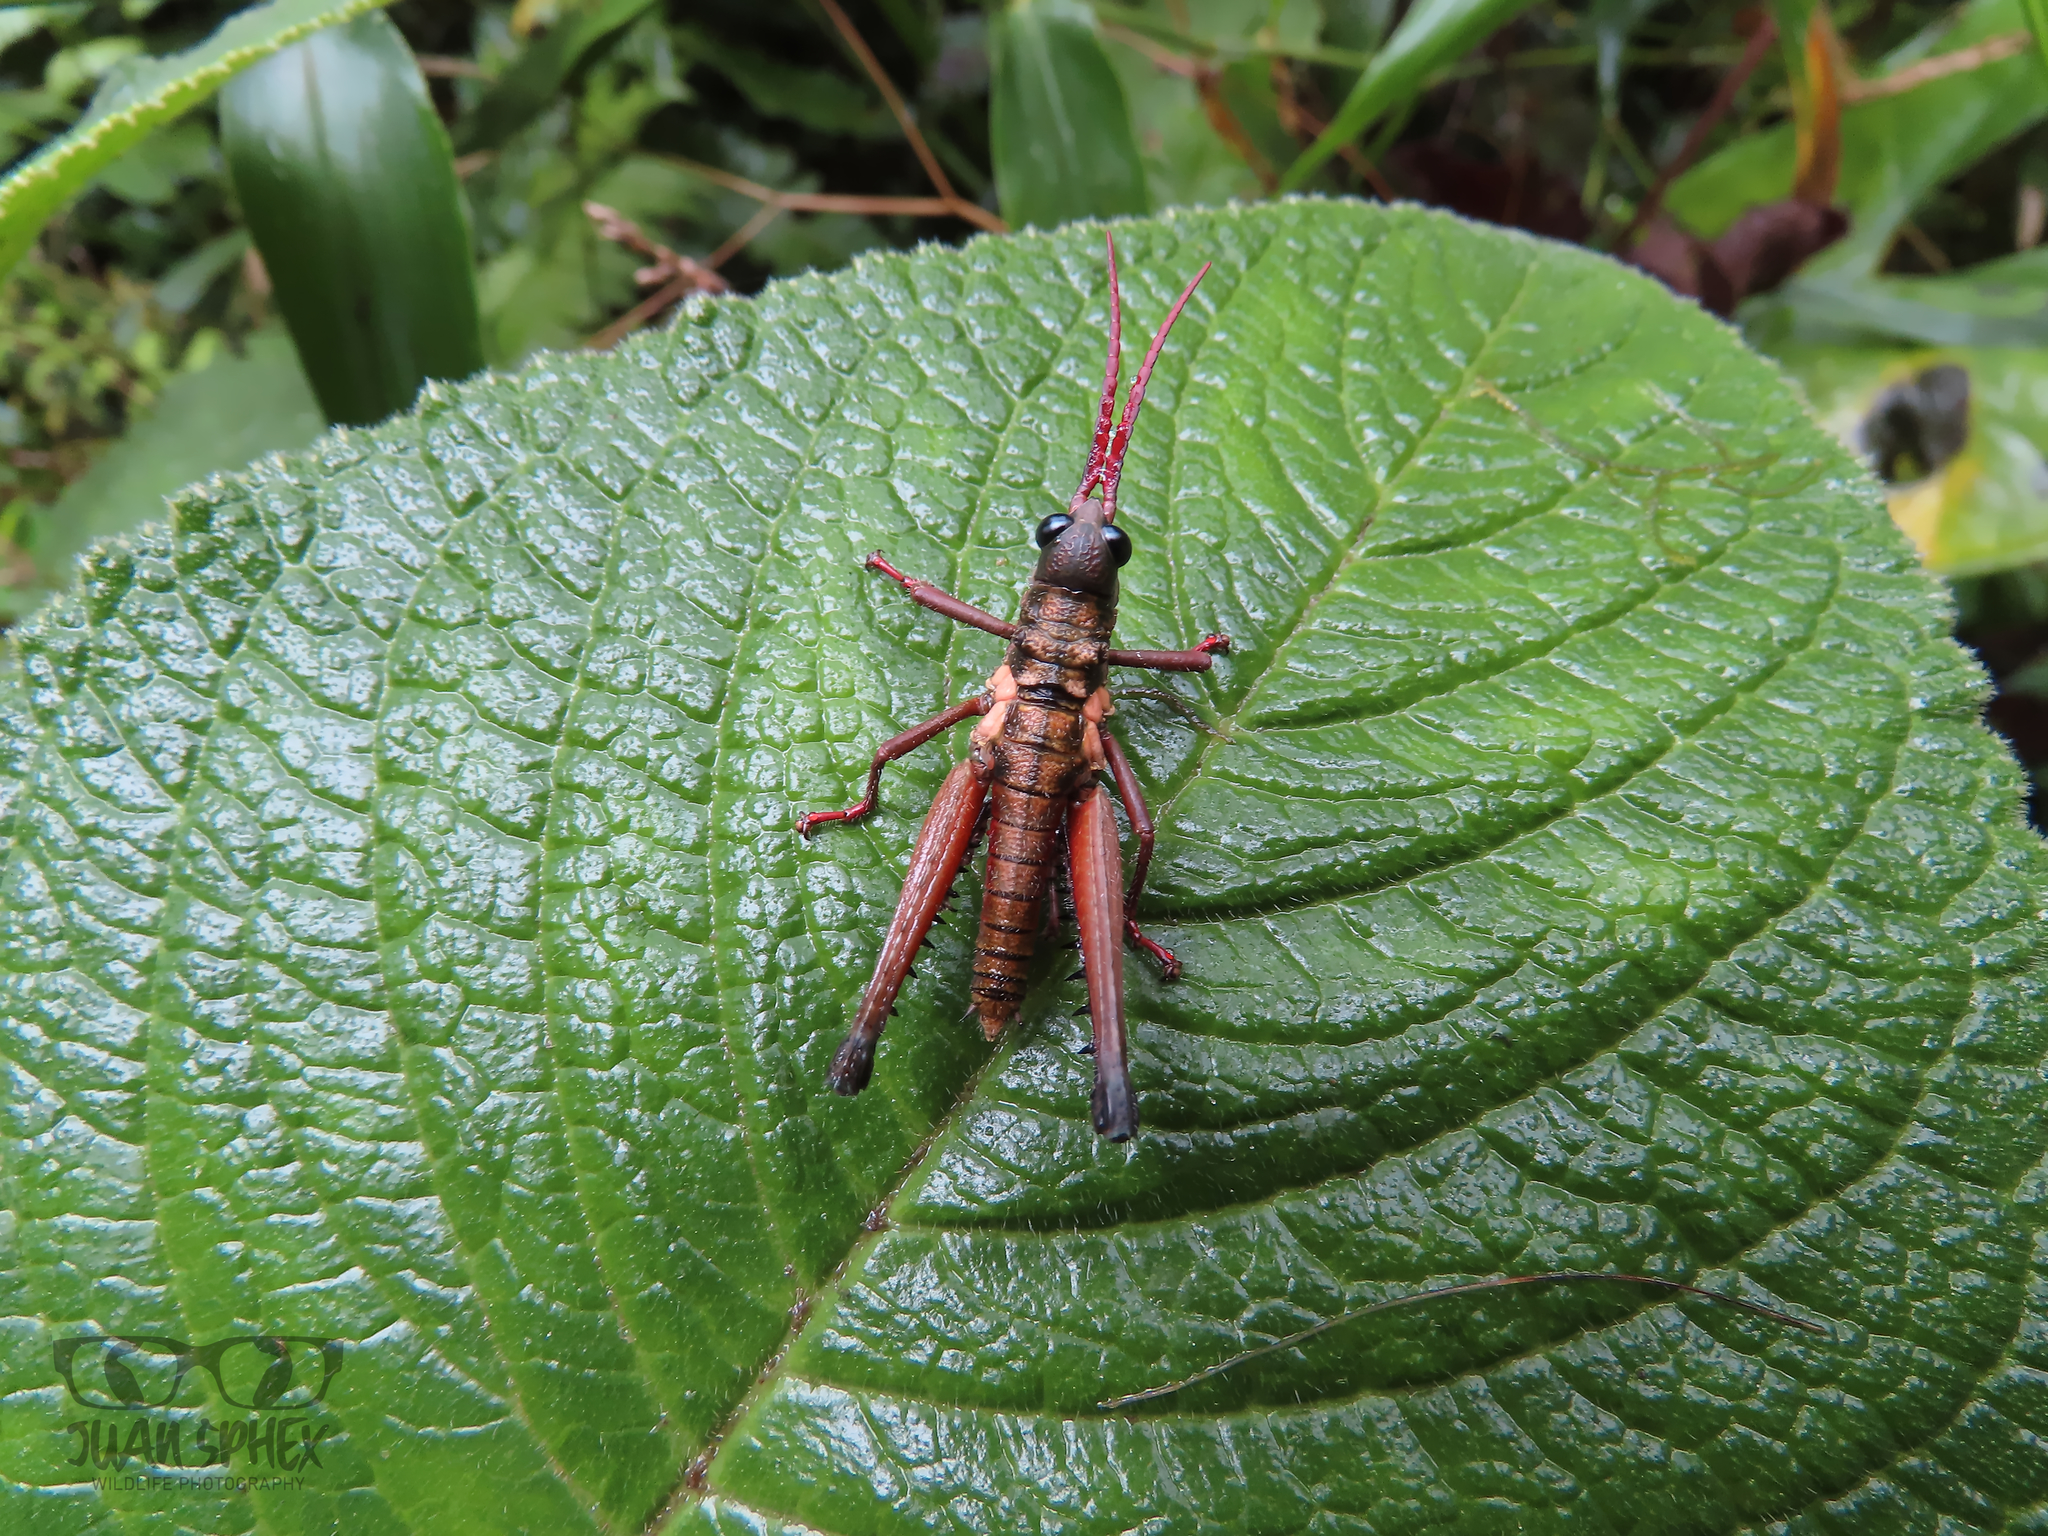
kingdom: Animalia
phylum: Arthropoda
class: Insecta
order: Orthoptera
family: Acrididae
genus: Driphilacris
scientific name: Driphilacris tuberosa
